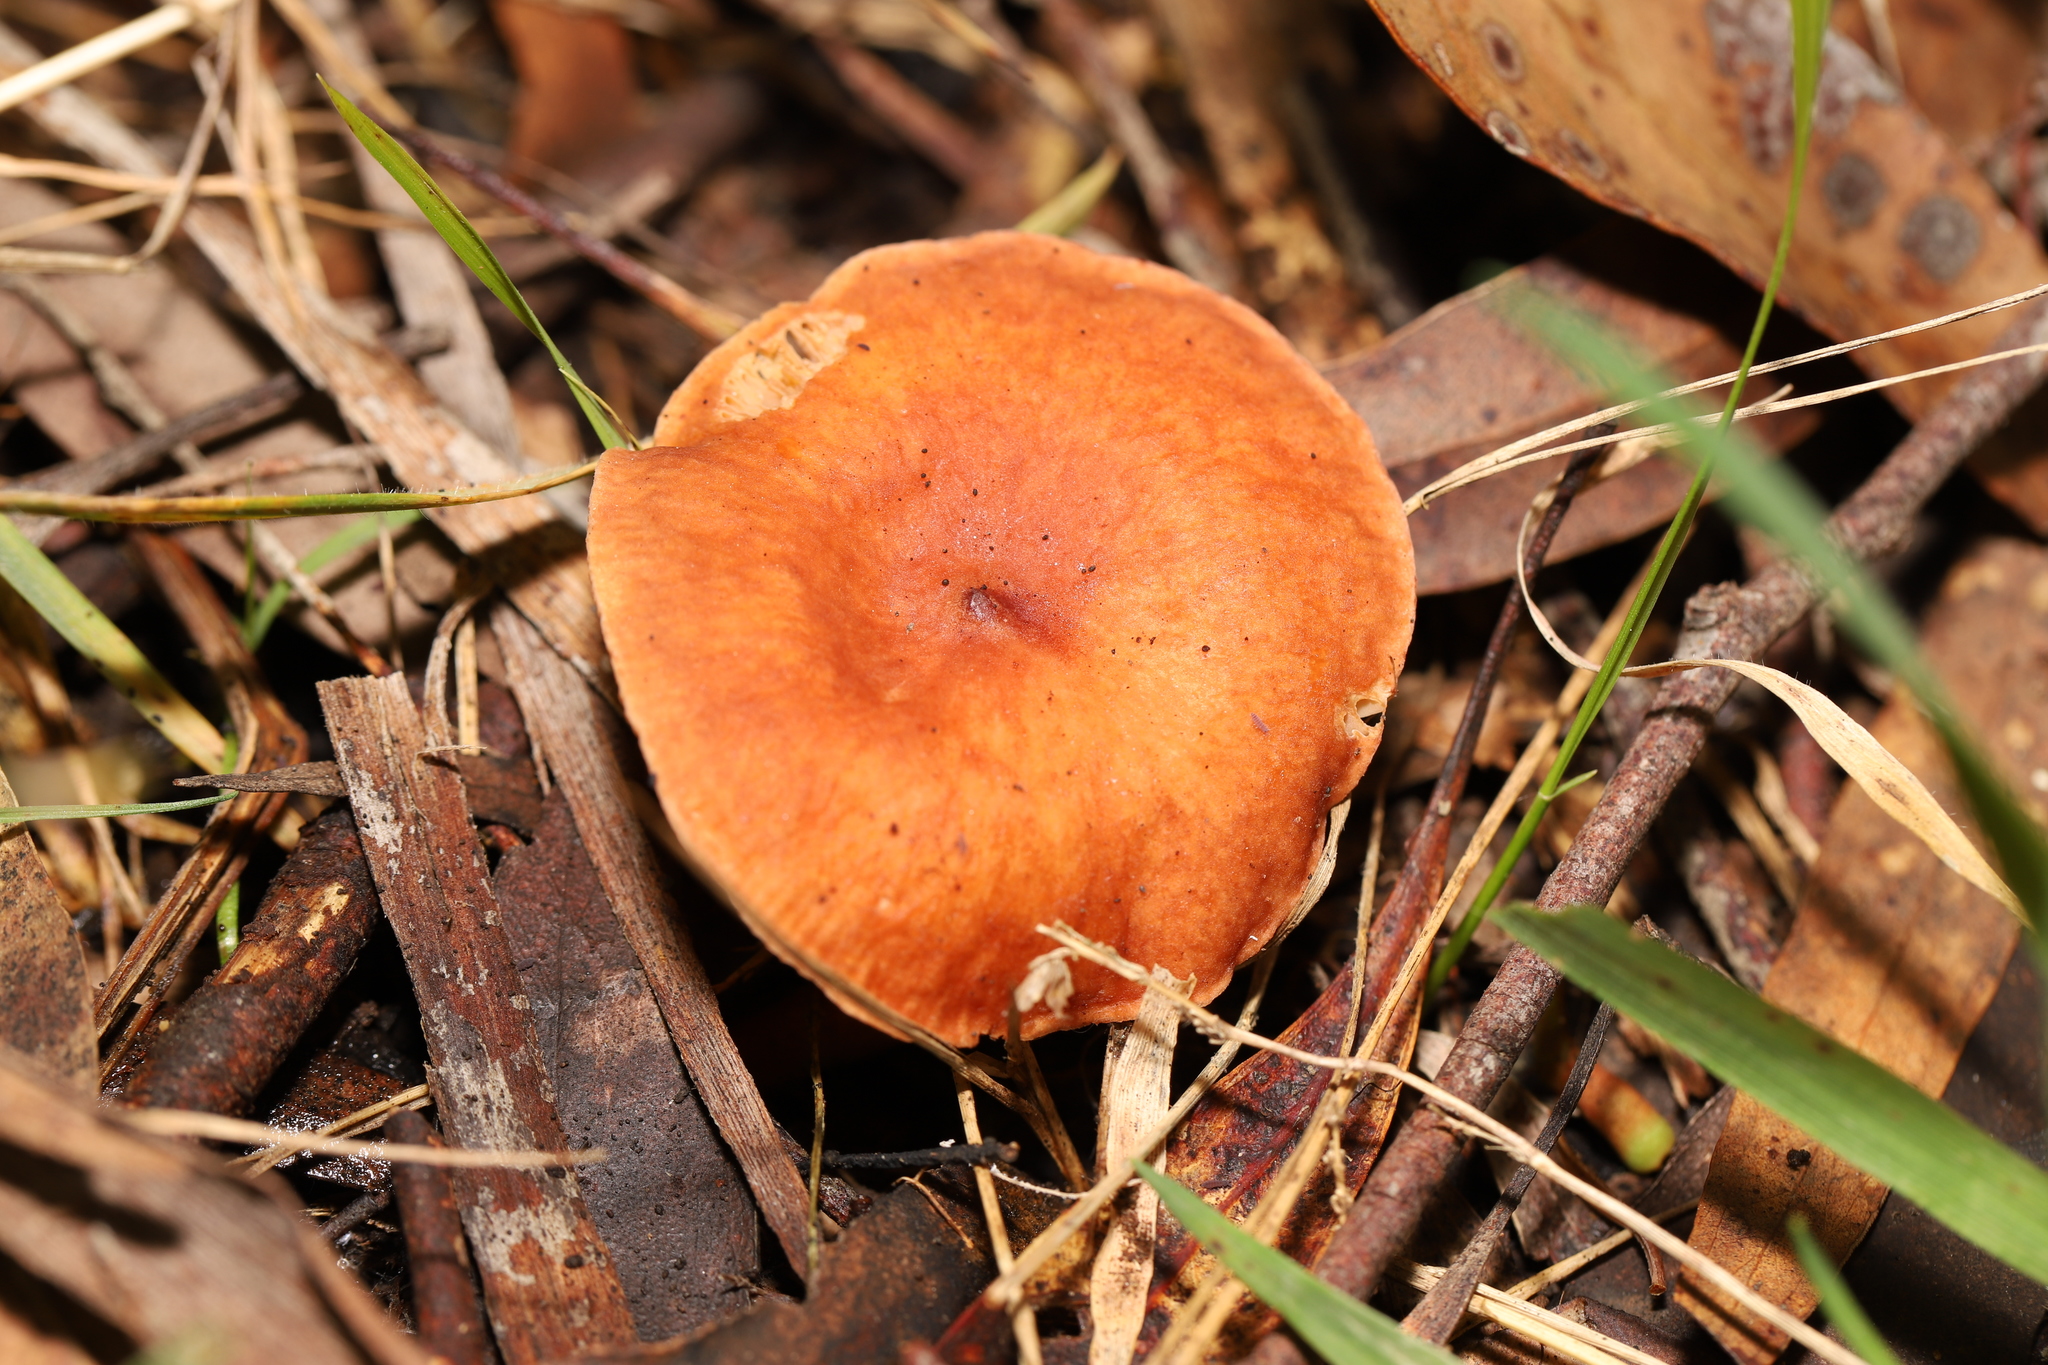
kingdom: Fungi
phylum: Basidiomycota
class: Agaricomycetes
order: Russulales
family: Russulaceae
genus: Lactarius
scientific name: Lactarius eucalypti
